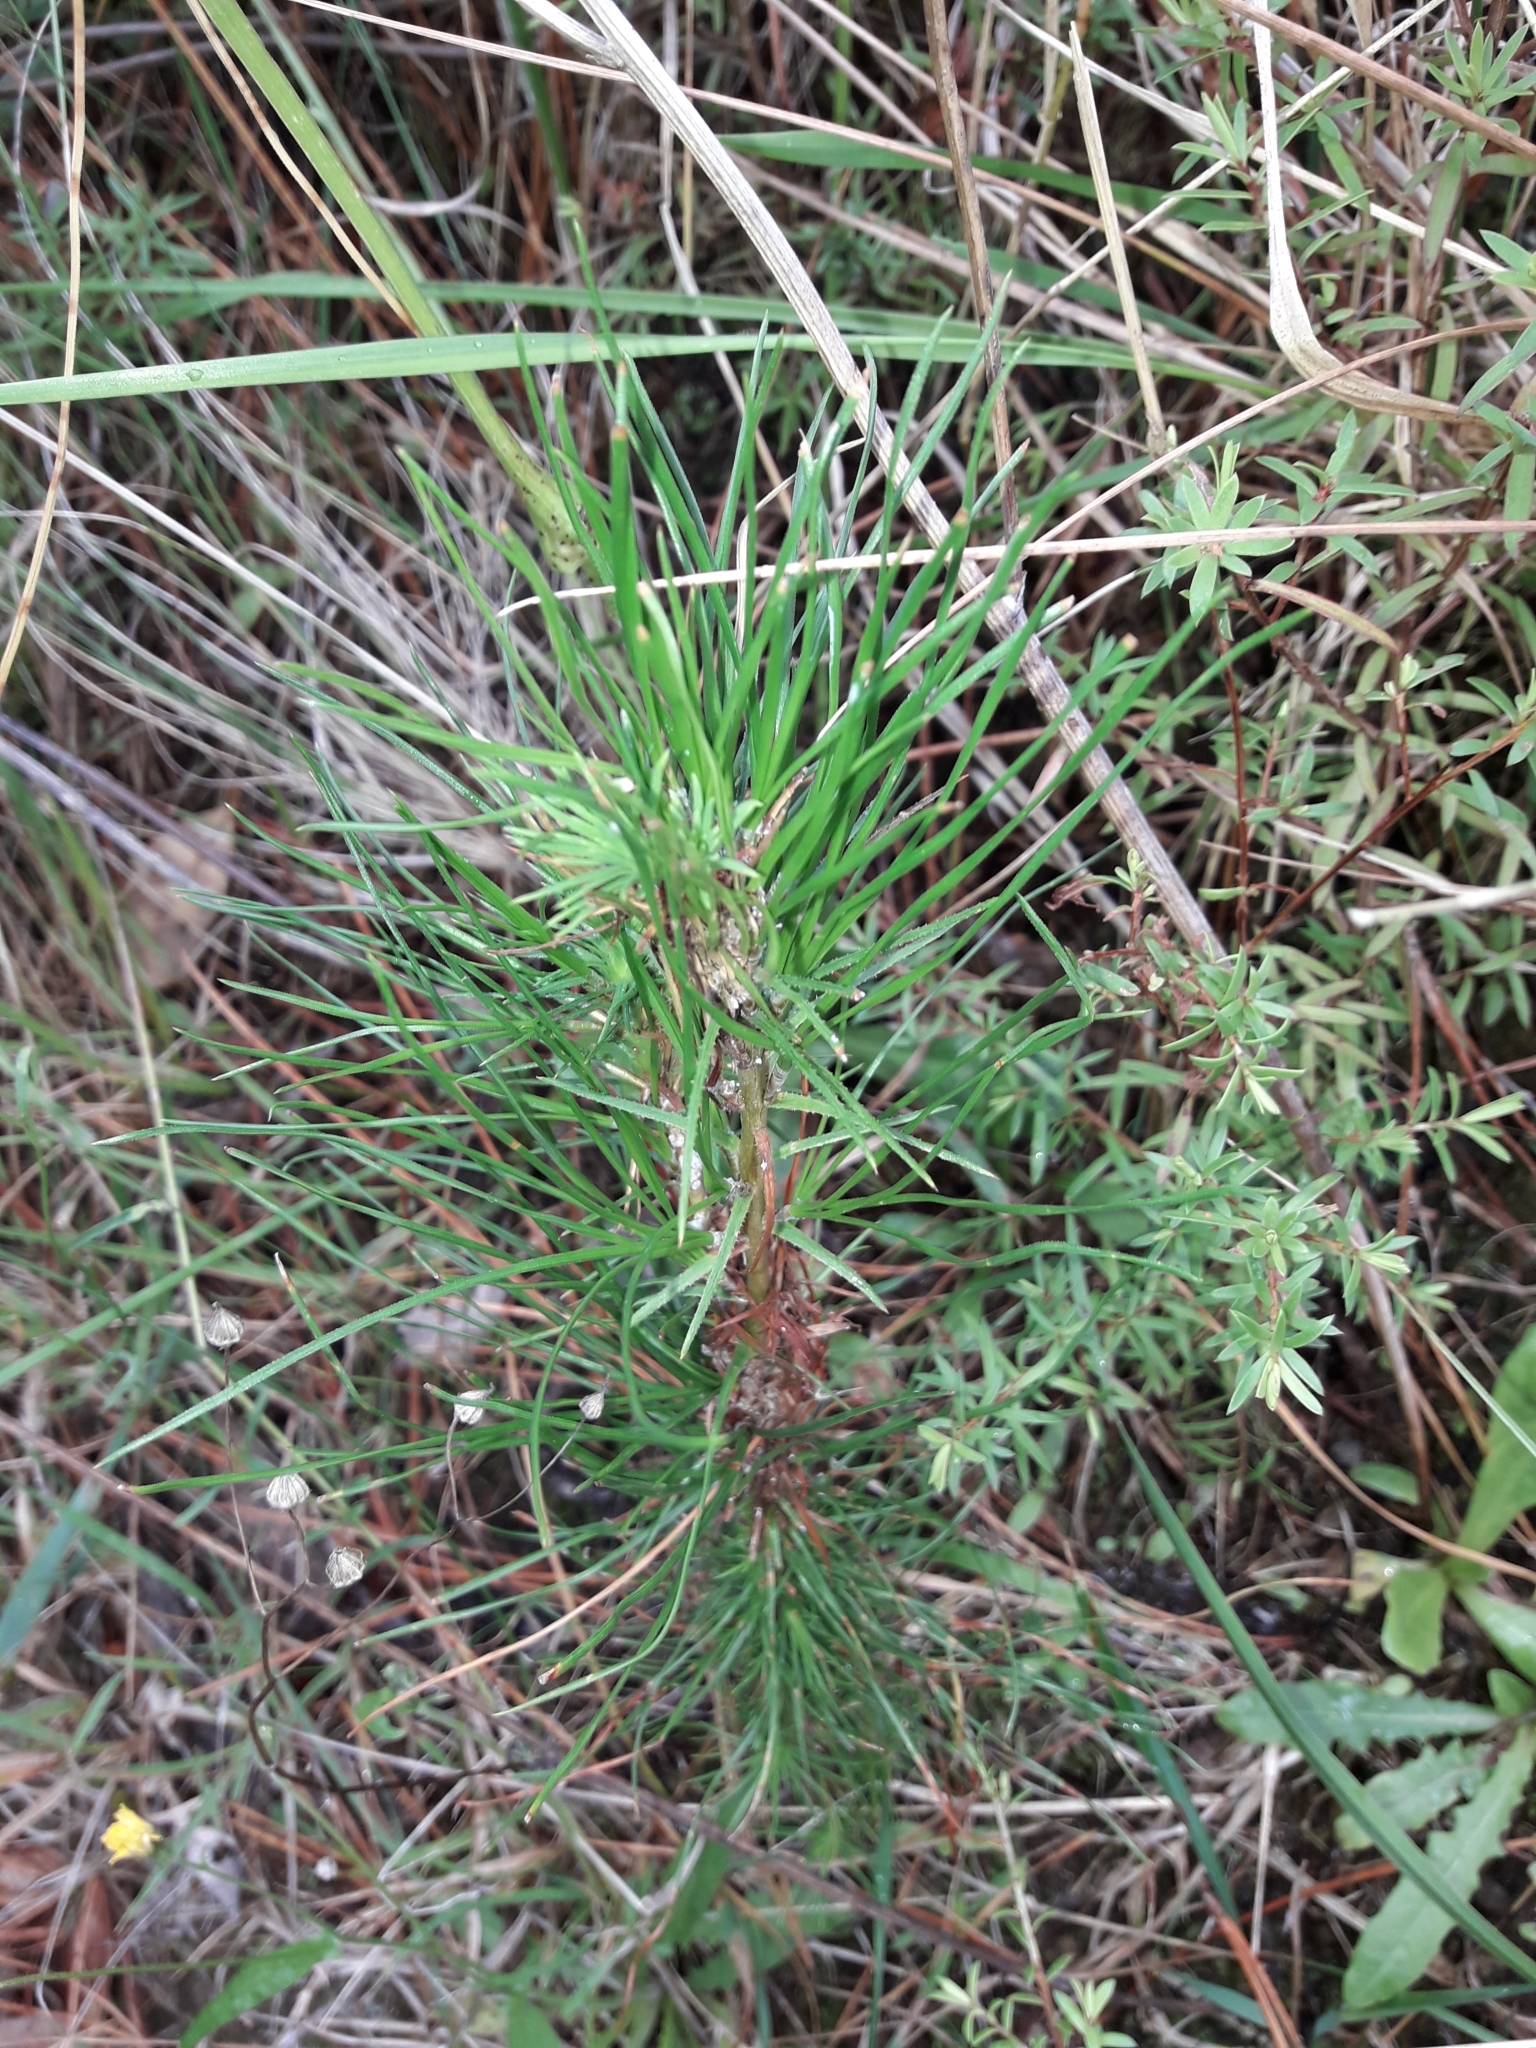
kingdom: Plantae
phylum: Tracheophyta
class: Pinopsida
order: Pinales
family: Pinaceae
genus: Pinus
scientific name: Pinus radiata
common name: Monterey pine
